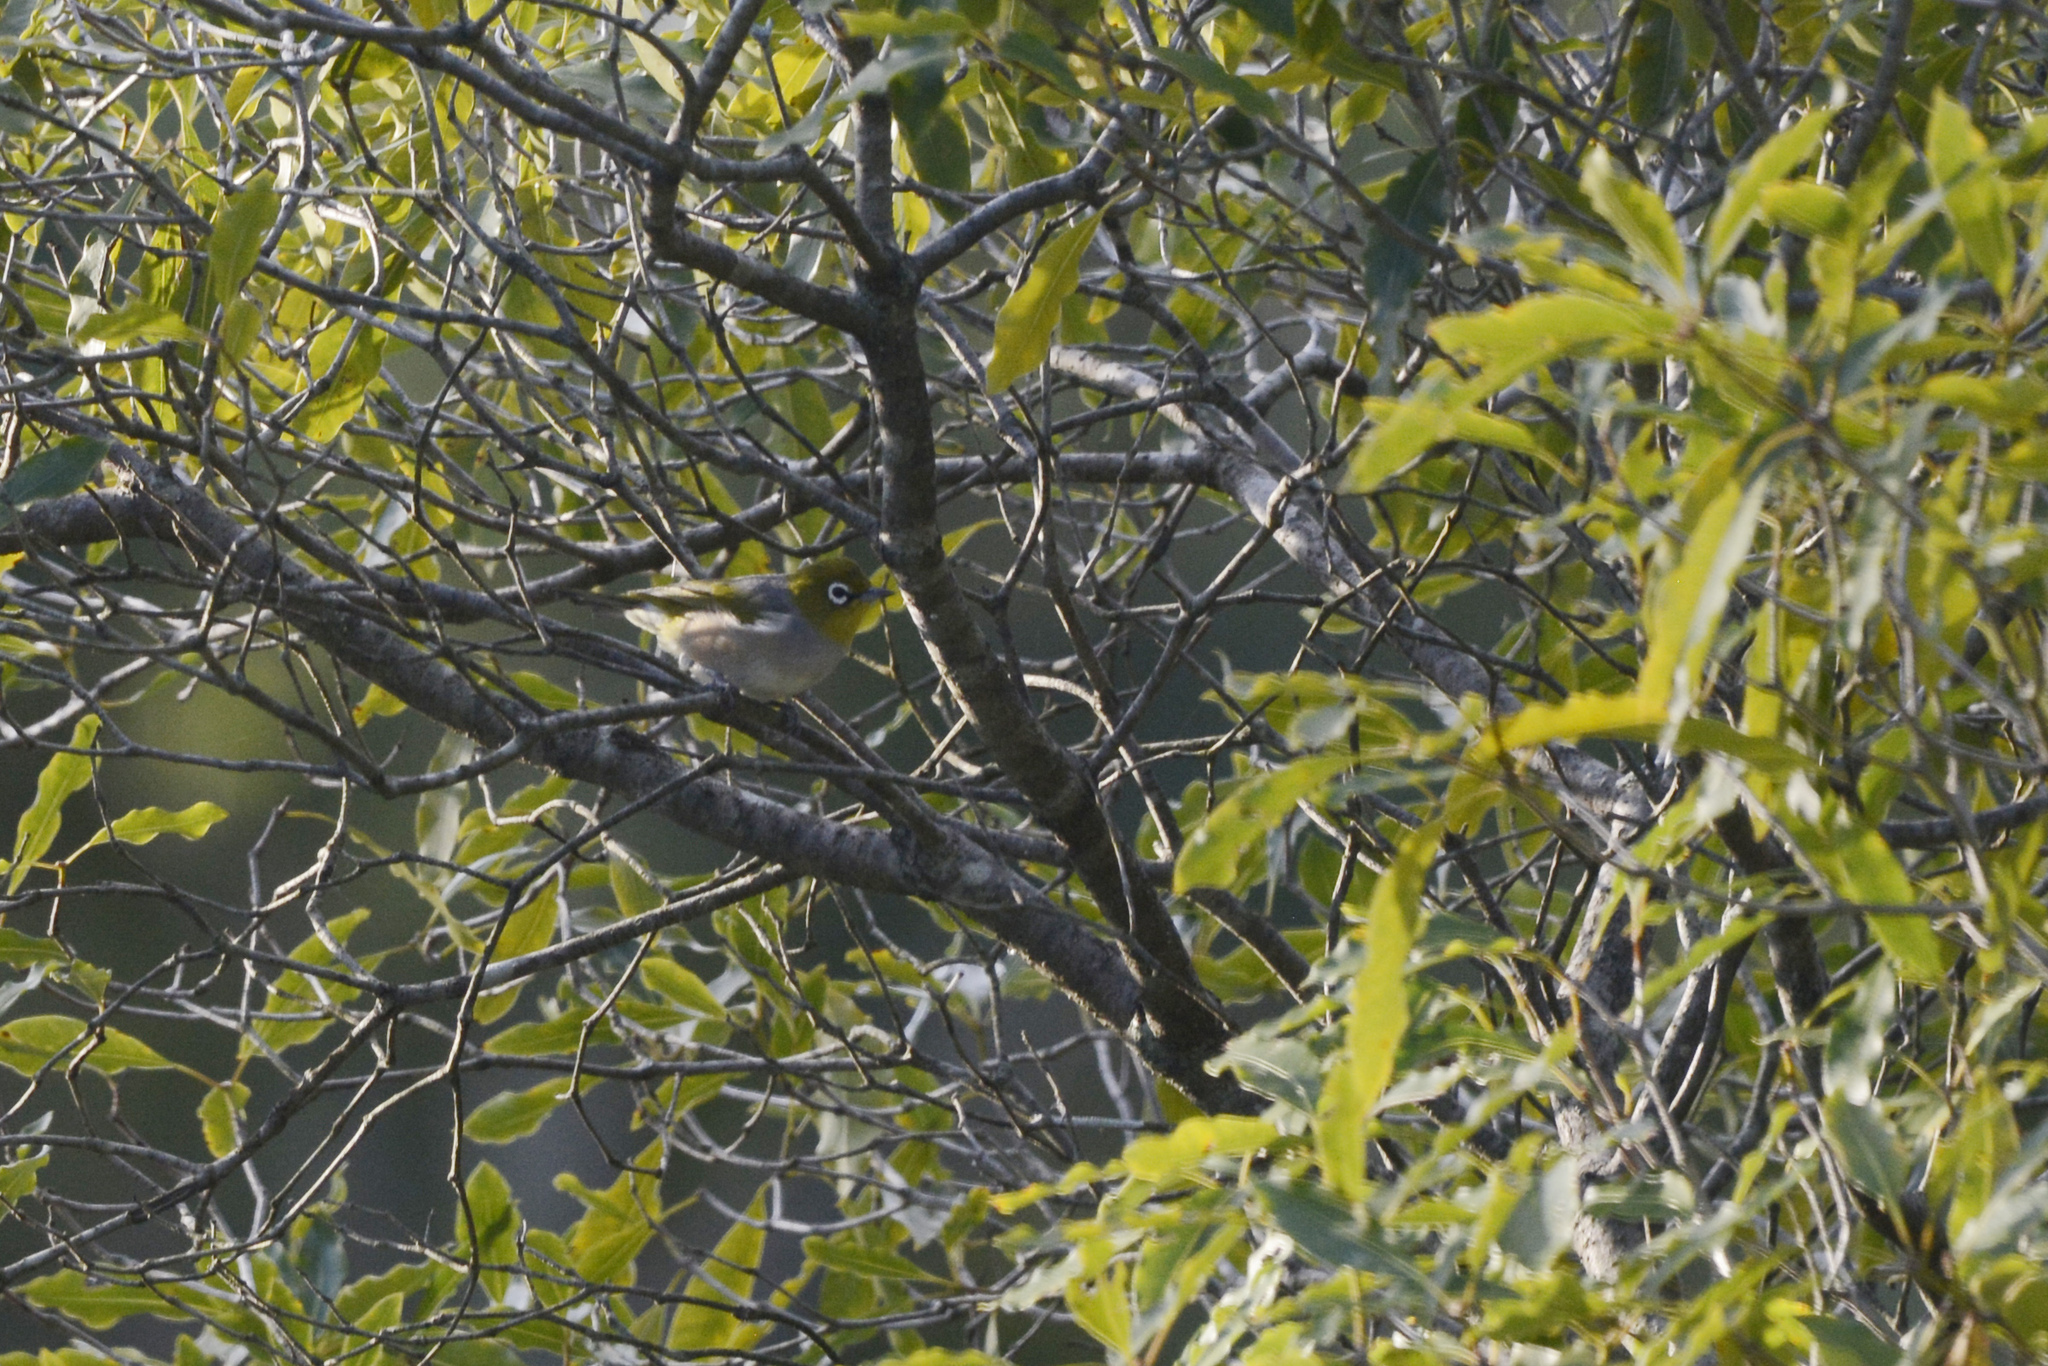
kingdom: Animalia
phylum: Chordata
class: Aves
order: Passeriformes
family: Zosteropidae
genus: Zosterops
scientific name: Zosterops lateralis
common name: Silvereye
